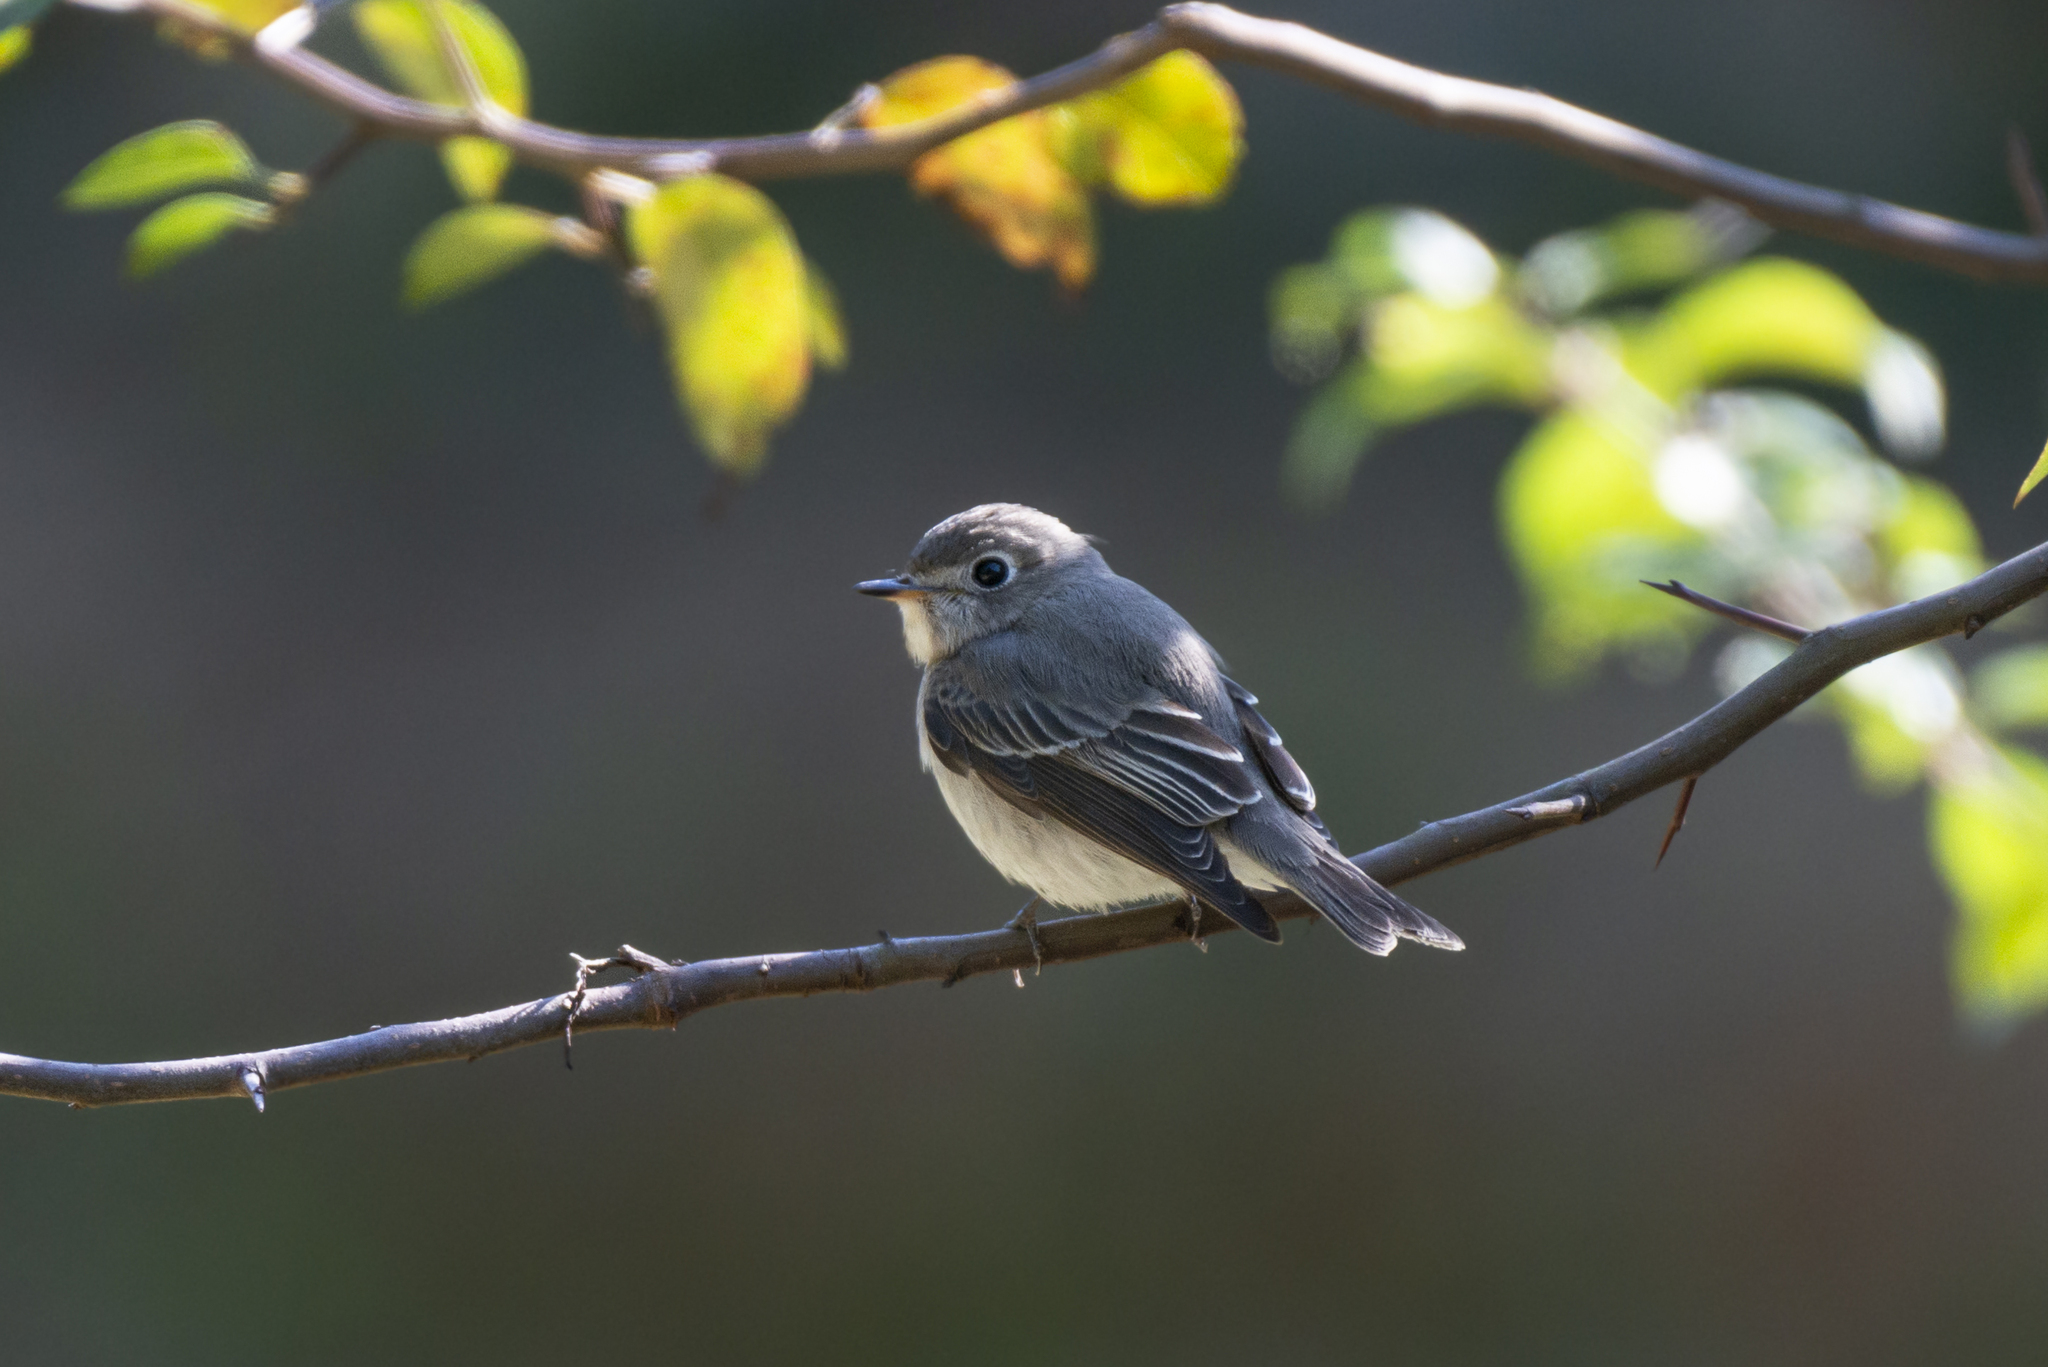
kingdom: Animalia
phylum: Chordata
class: Aves
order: Passeriformes
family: Muscicapidae
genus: Muscicapa
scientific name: Muscicapa latirostris
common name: Asian brown flycatcher
